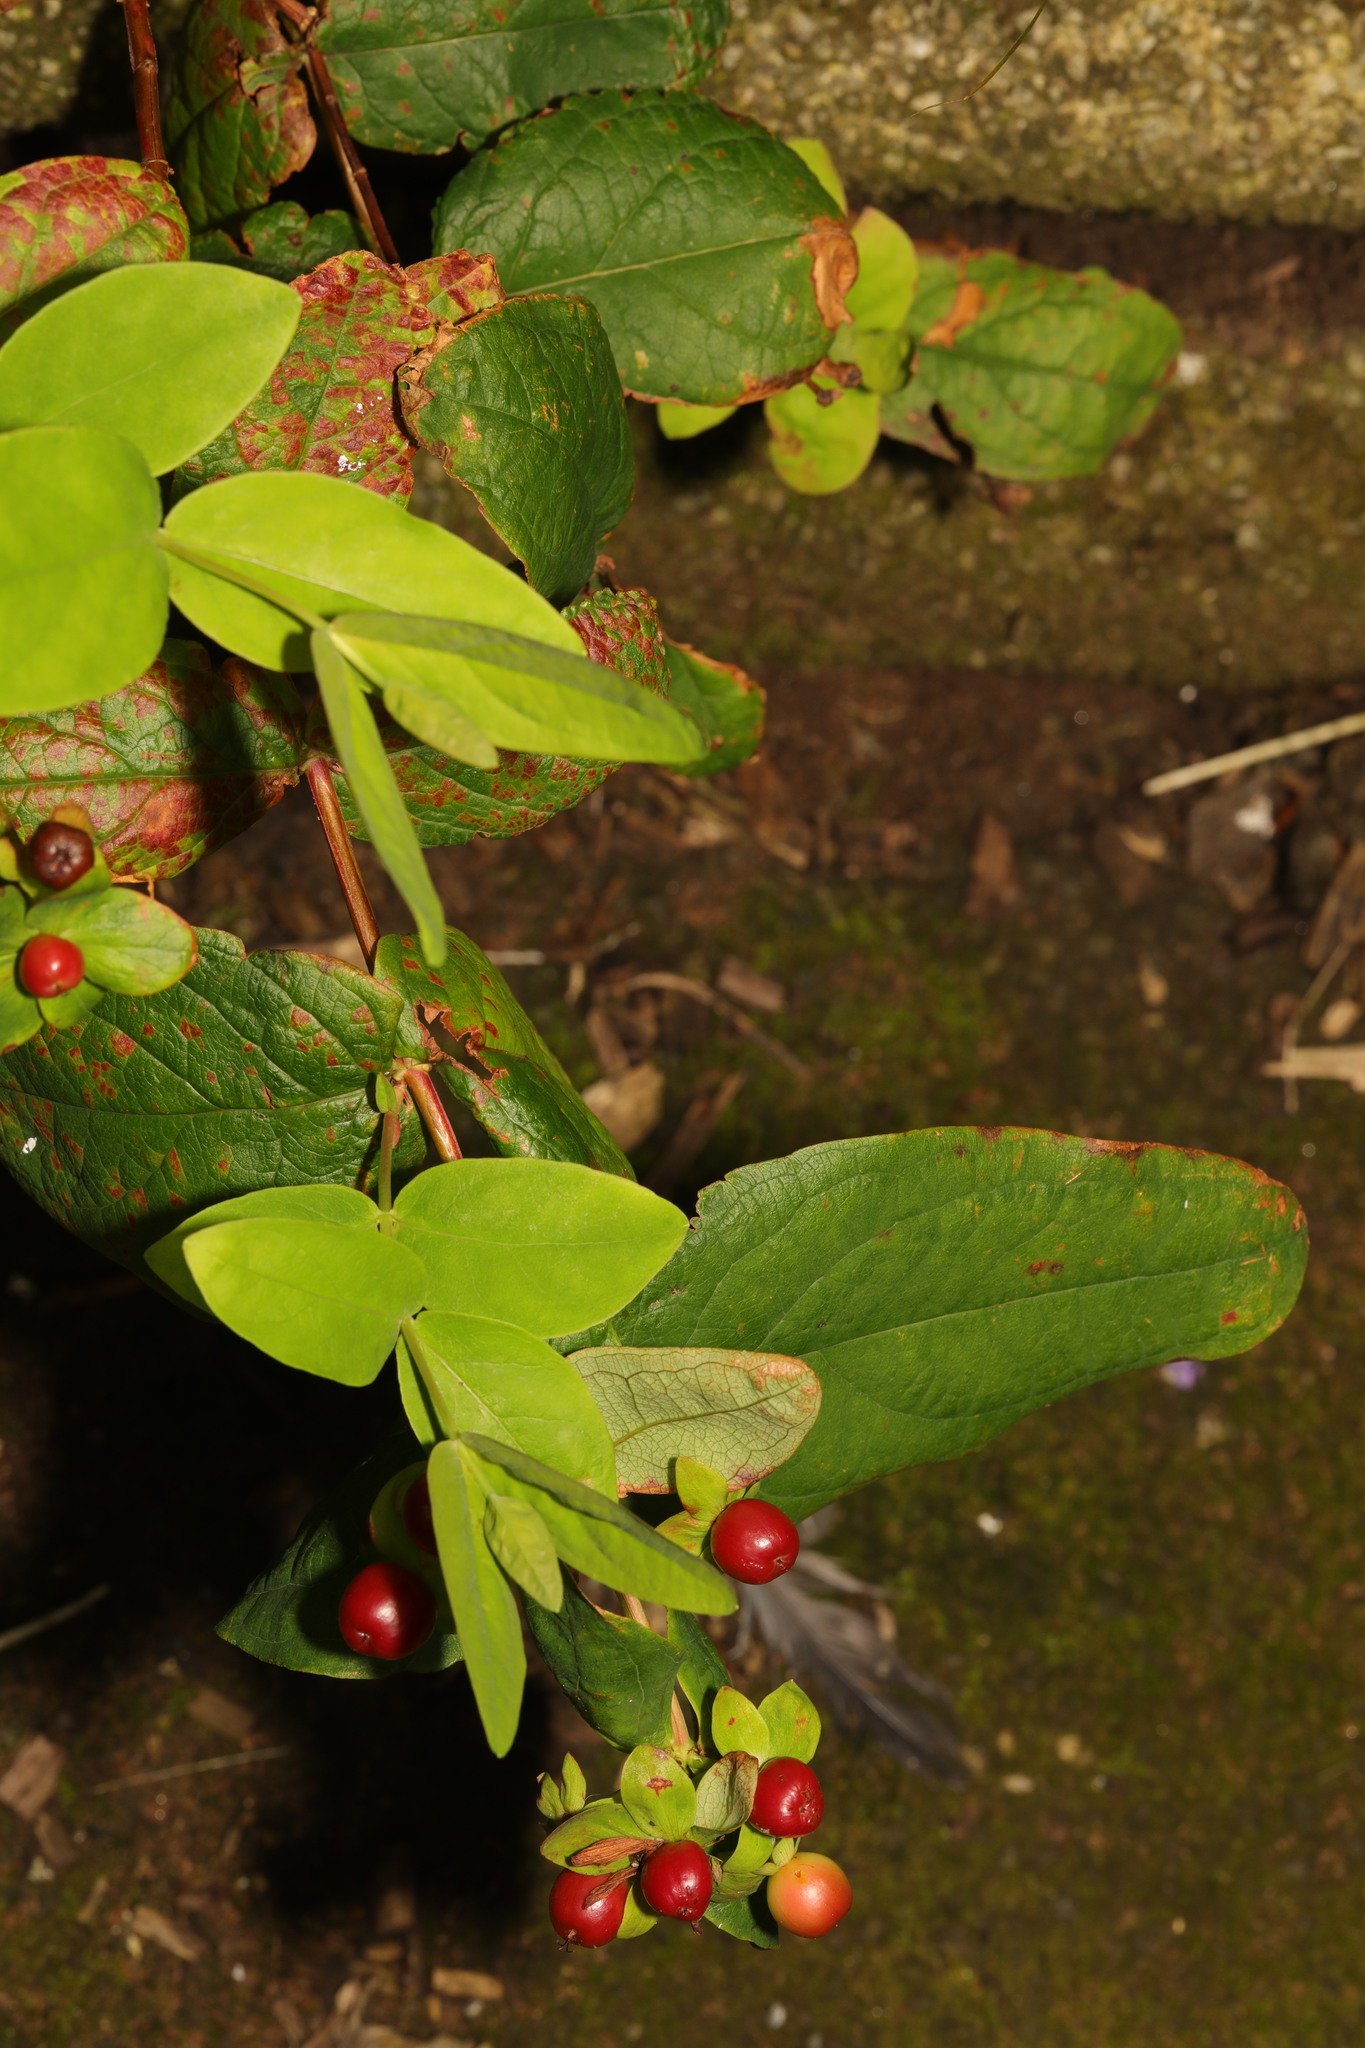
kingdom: Plantae
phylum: Tracheophyta
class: Magnoliopsida
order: Malpighiales
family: Hypericaceae
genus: Hypericum
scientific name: Hypericum androsaemum
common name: Sweet-amber
